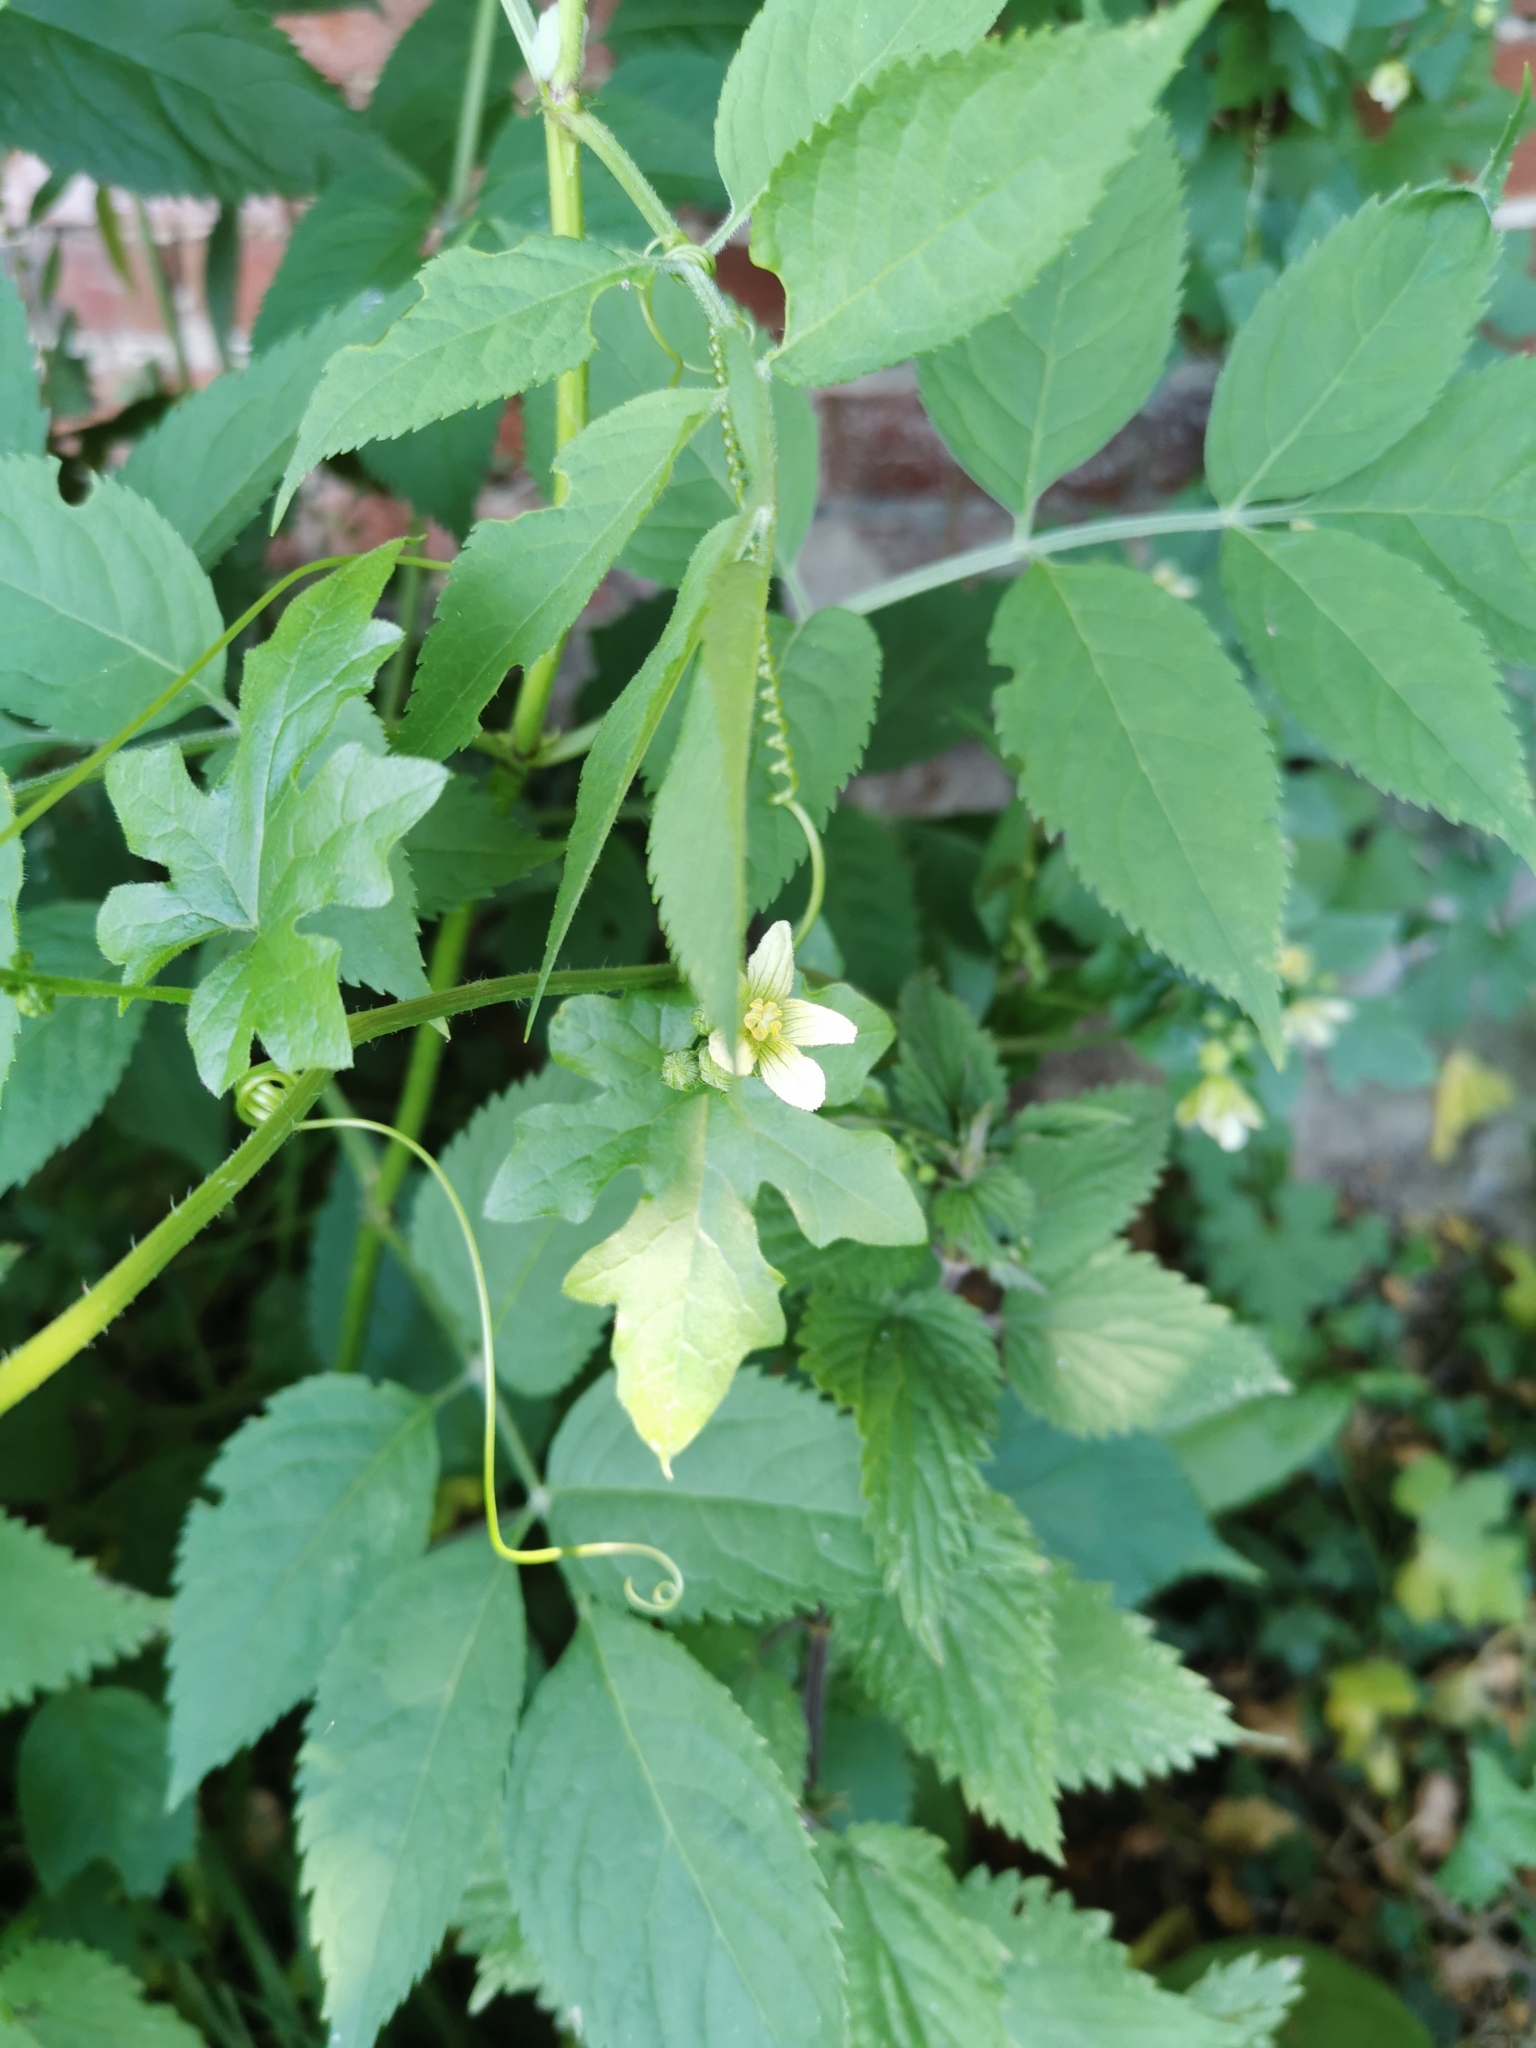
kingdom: Plantae
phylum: Tracheophyta
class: Magnoliopsida
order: Cucurbitales
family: Cucurbitaceae
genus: Bryonia
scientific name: Bryonia cretica
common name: Cretan bryony
